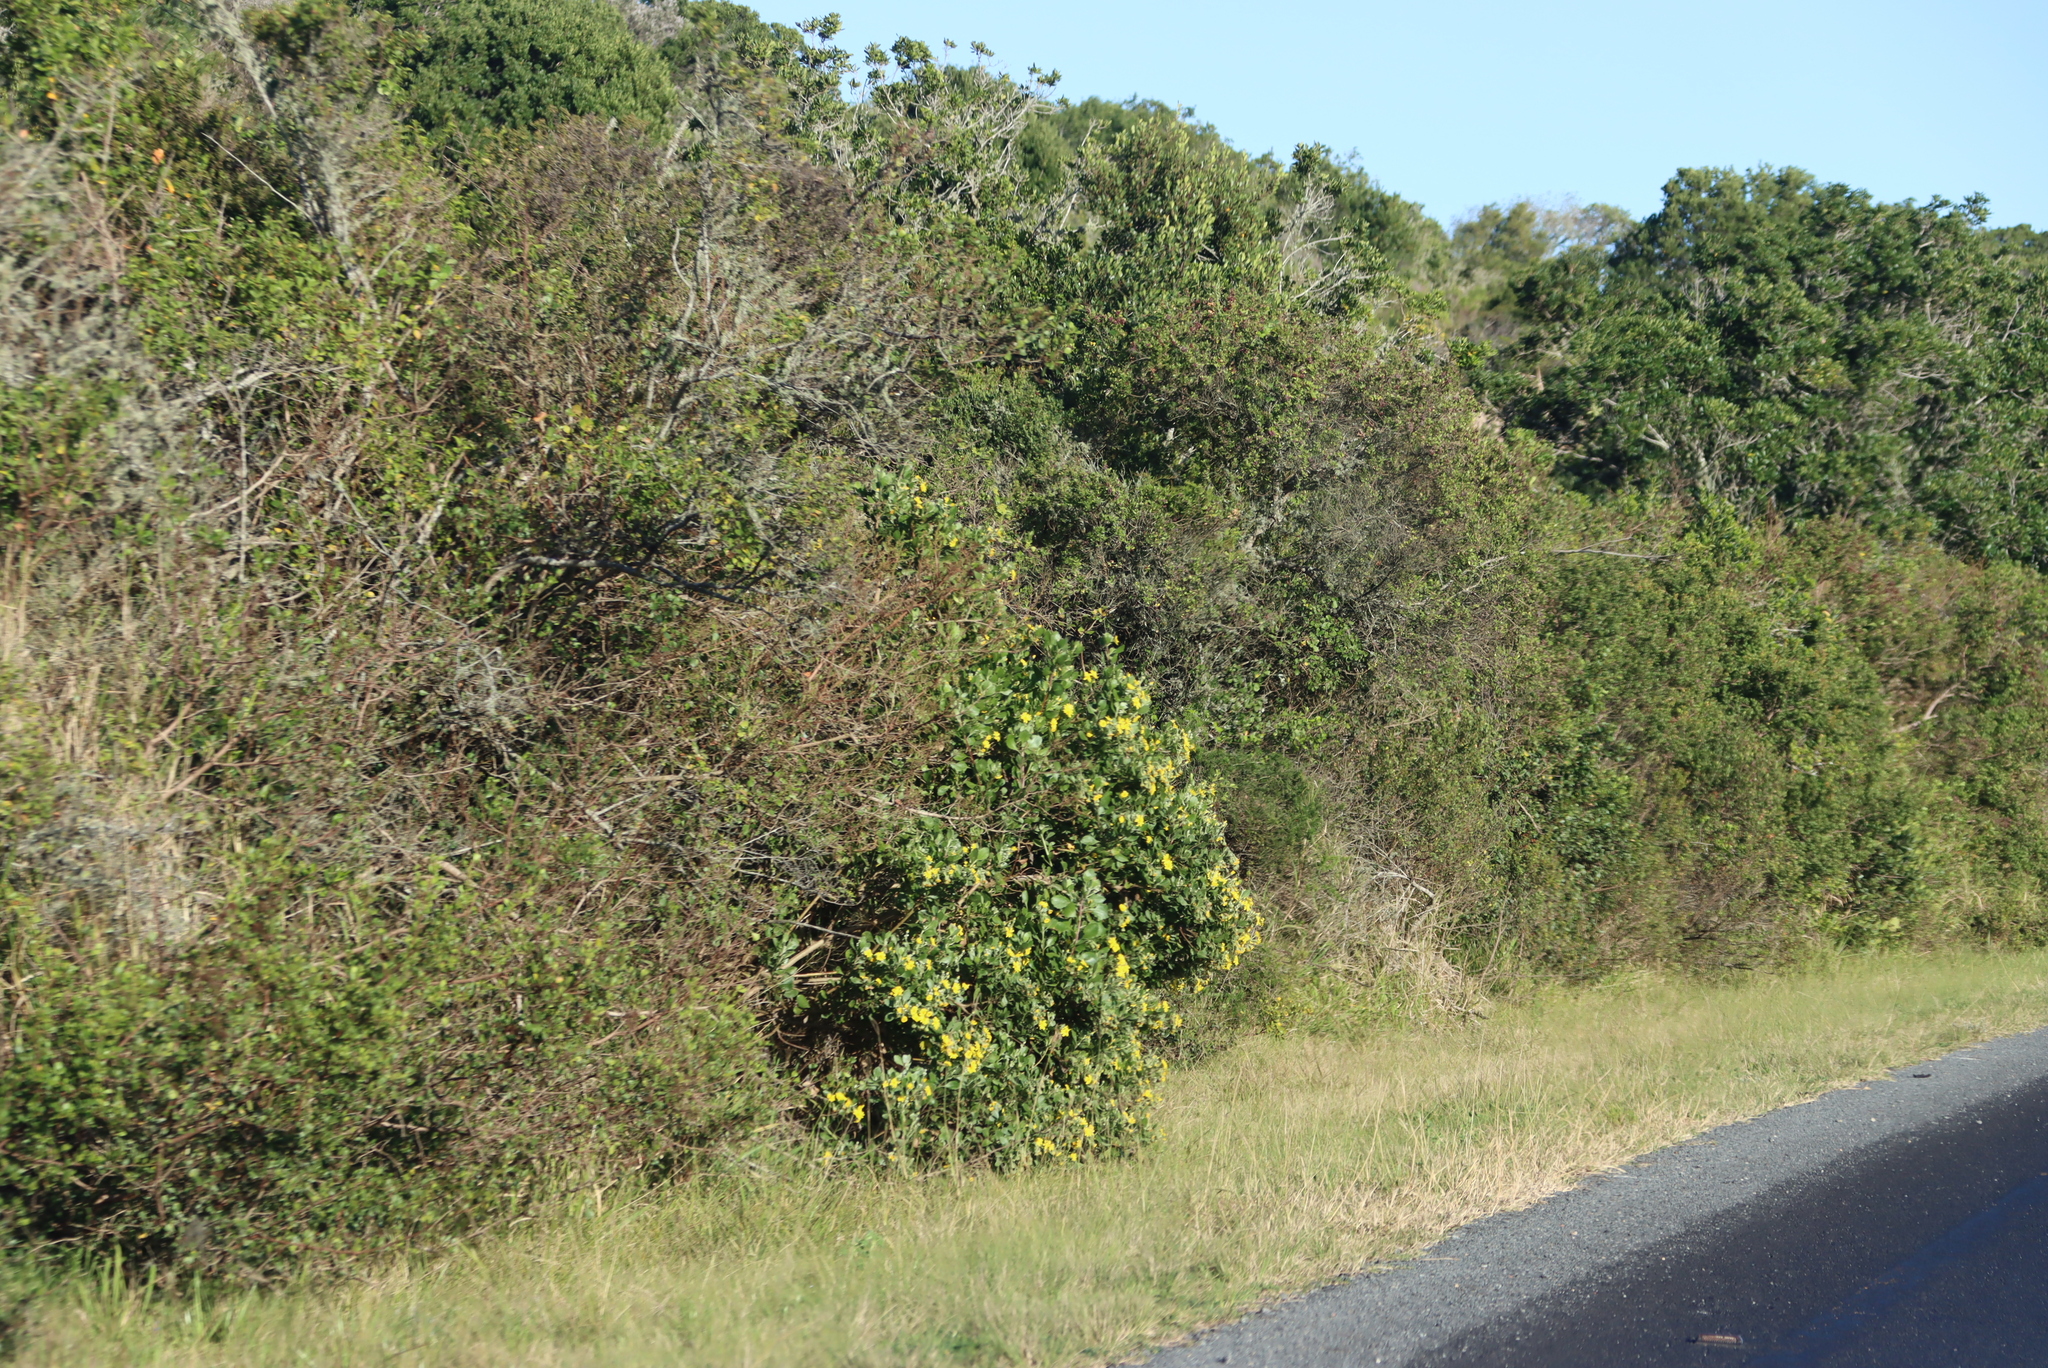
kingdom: Plantae
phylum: Tracheophyta
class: Magnoliopsida
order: Asterales
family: Asteraceae
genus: Osteospermum
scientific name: Osteospermum moniliferum
